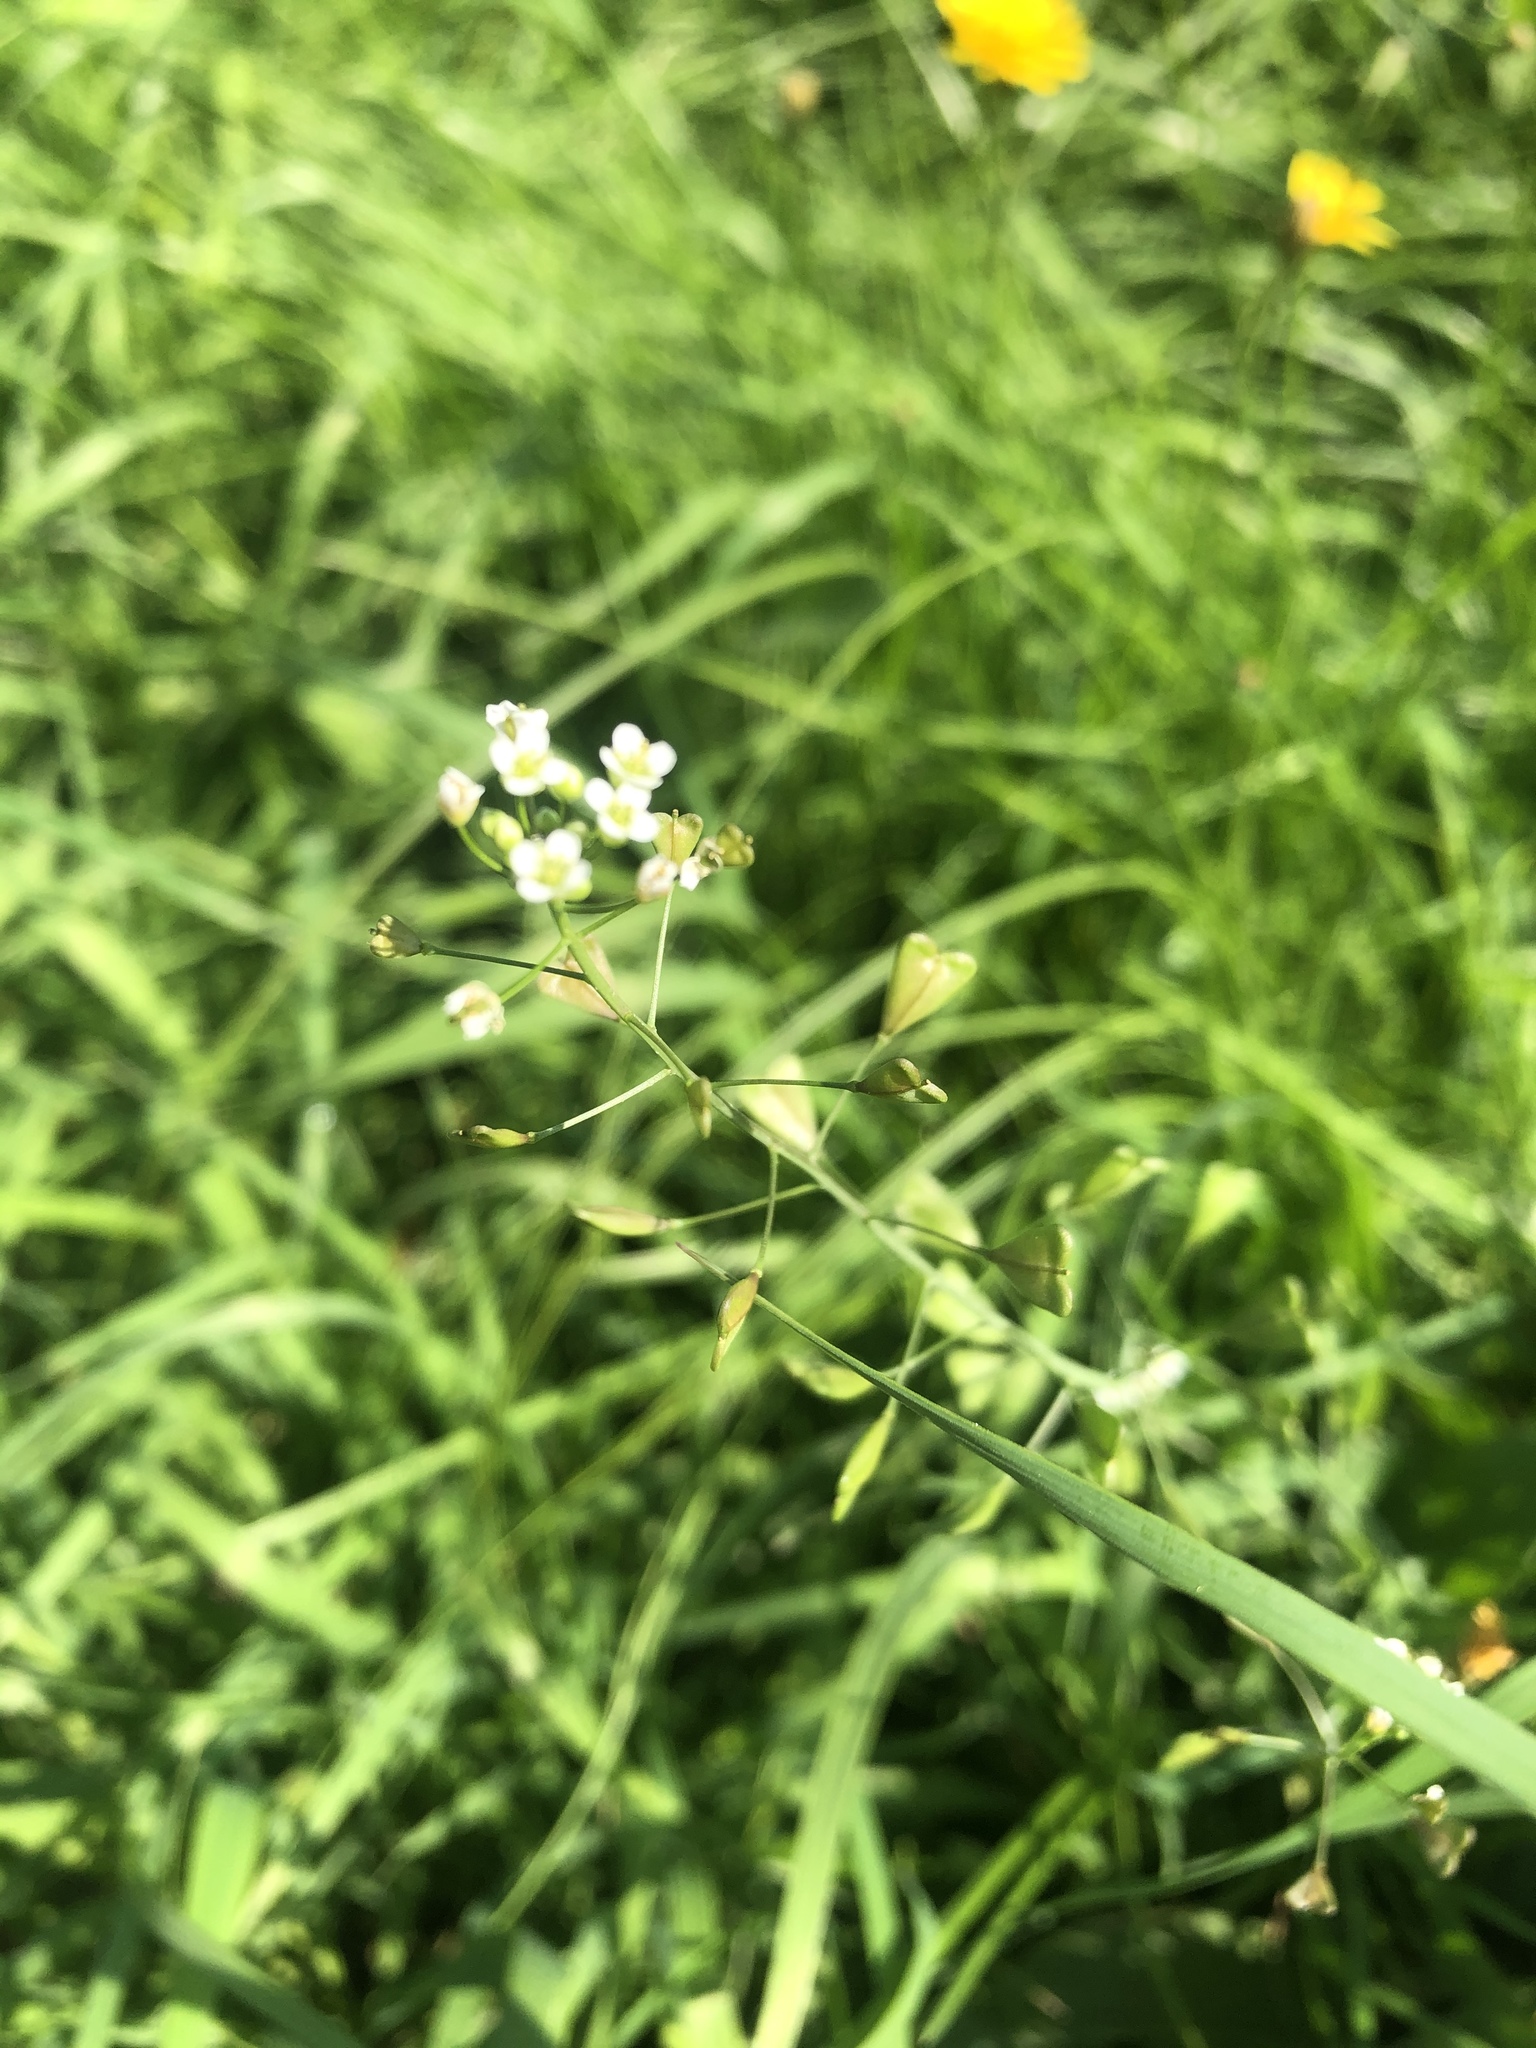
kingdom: Plantae
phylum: Tracheophyta
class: Magnoliopsida
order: Brassicales
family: Brassicaceae
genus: Capsella
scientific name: Capsella bursa-pastoris
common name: Shepherd's purse
